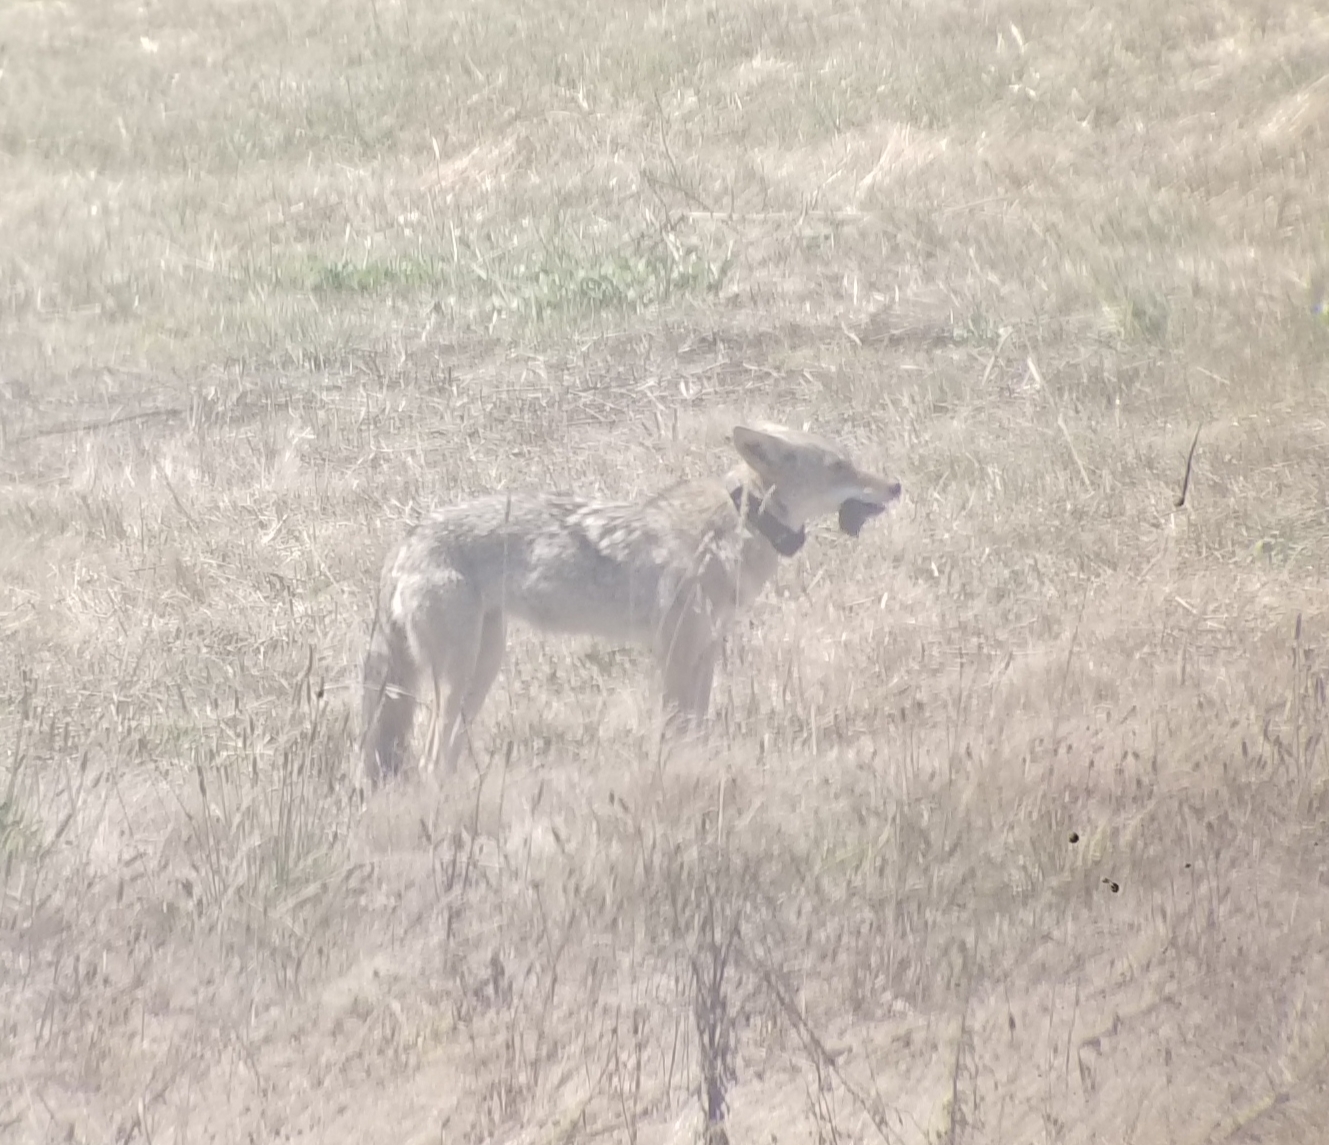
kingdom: Animalia
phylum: Chordata
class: Mammalia
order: Carnivora
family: Canidae
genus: Canis
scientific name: Canis latrans
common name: Coyote
